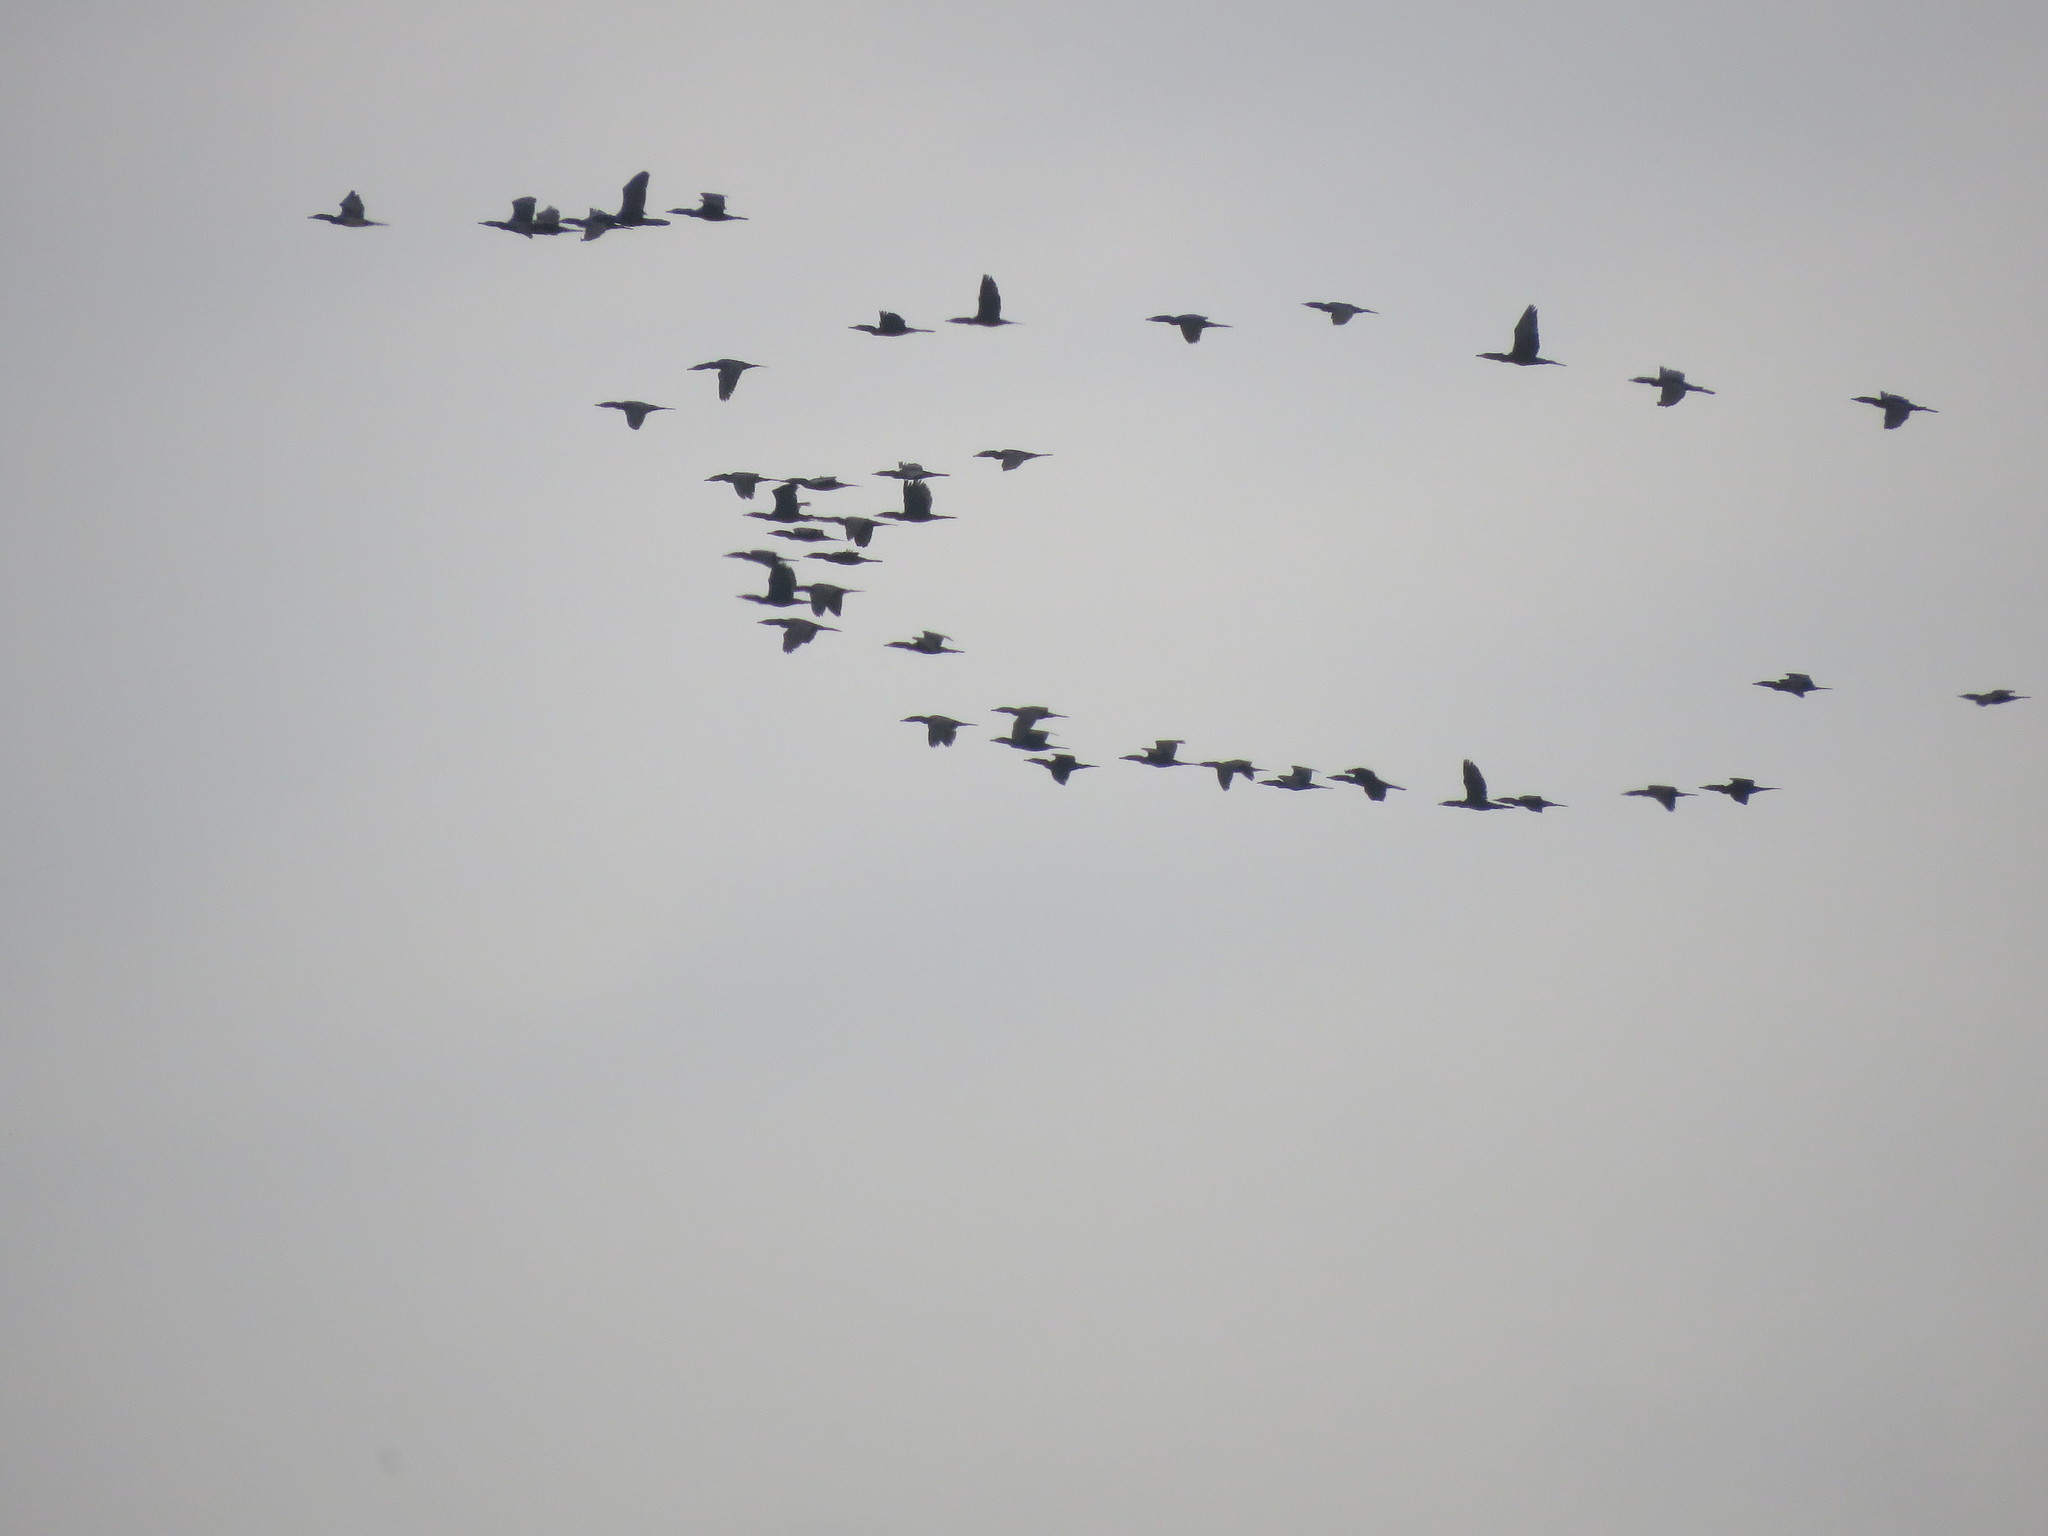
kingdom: Animalia
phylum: Chordata
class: Aves
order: Suliformes
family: Phalacrocoracidae
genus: Phalacrocorax
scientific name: Phalacrocorax brasilianus
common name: Neotropic cormorant
